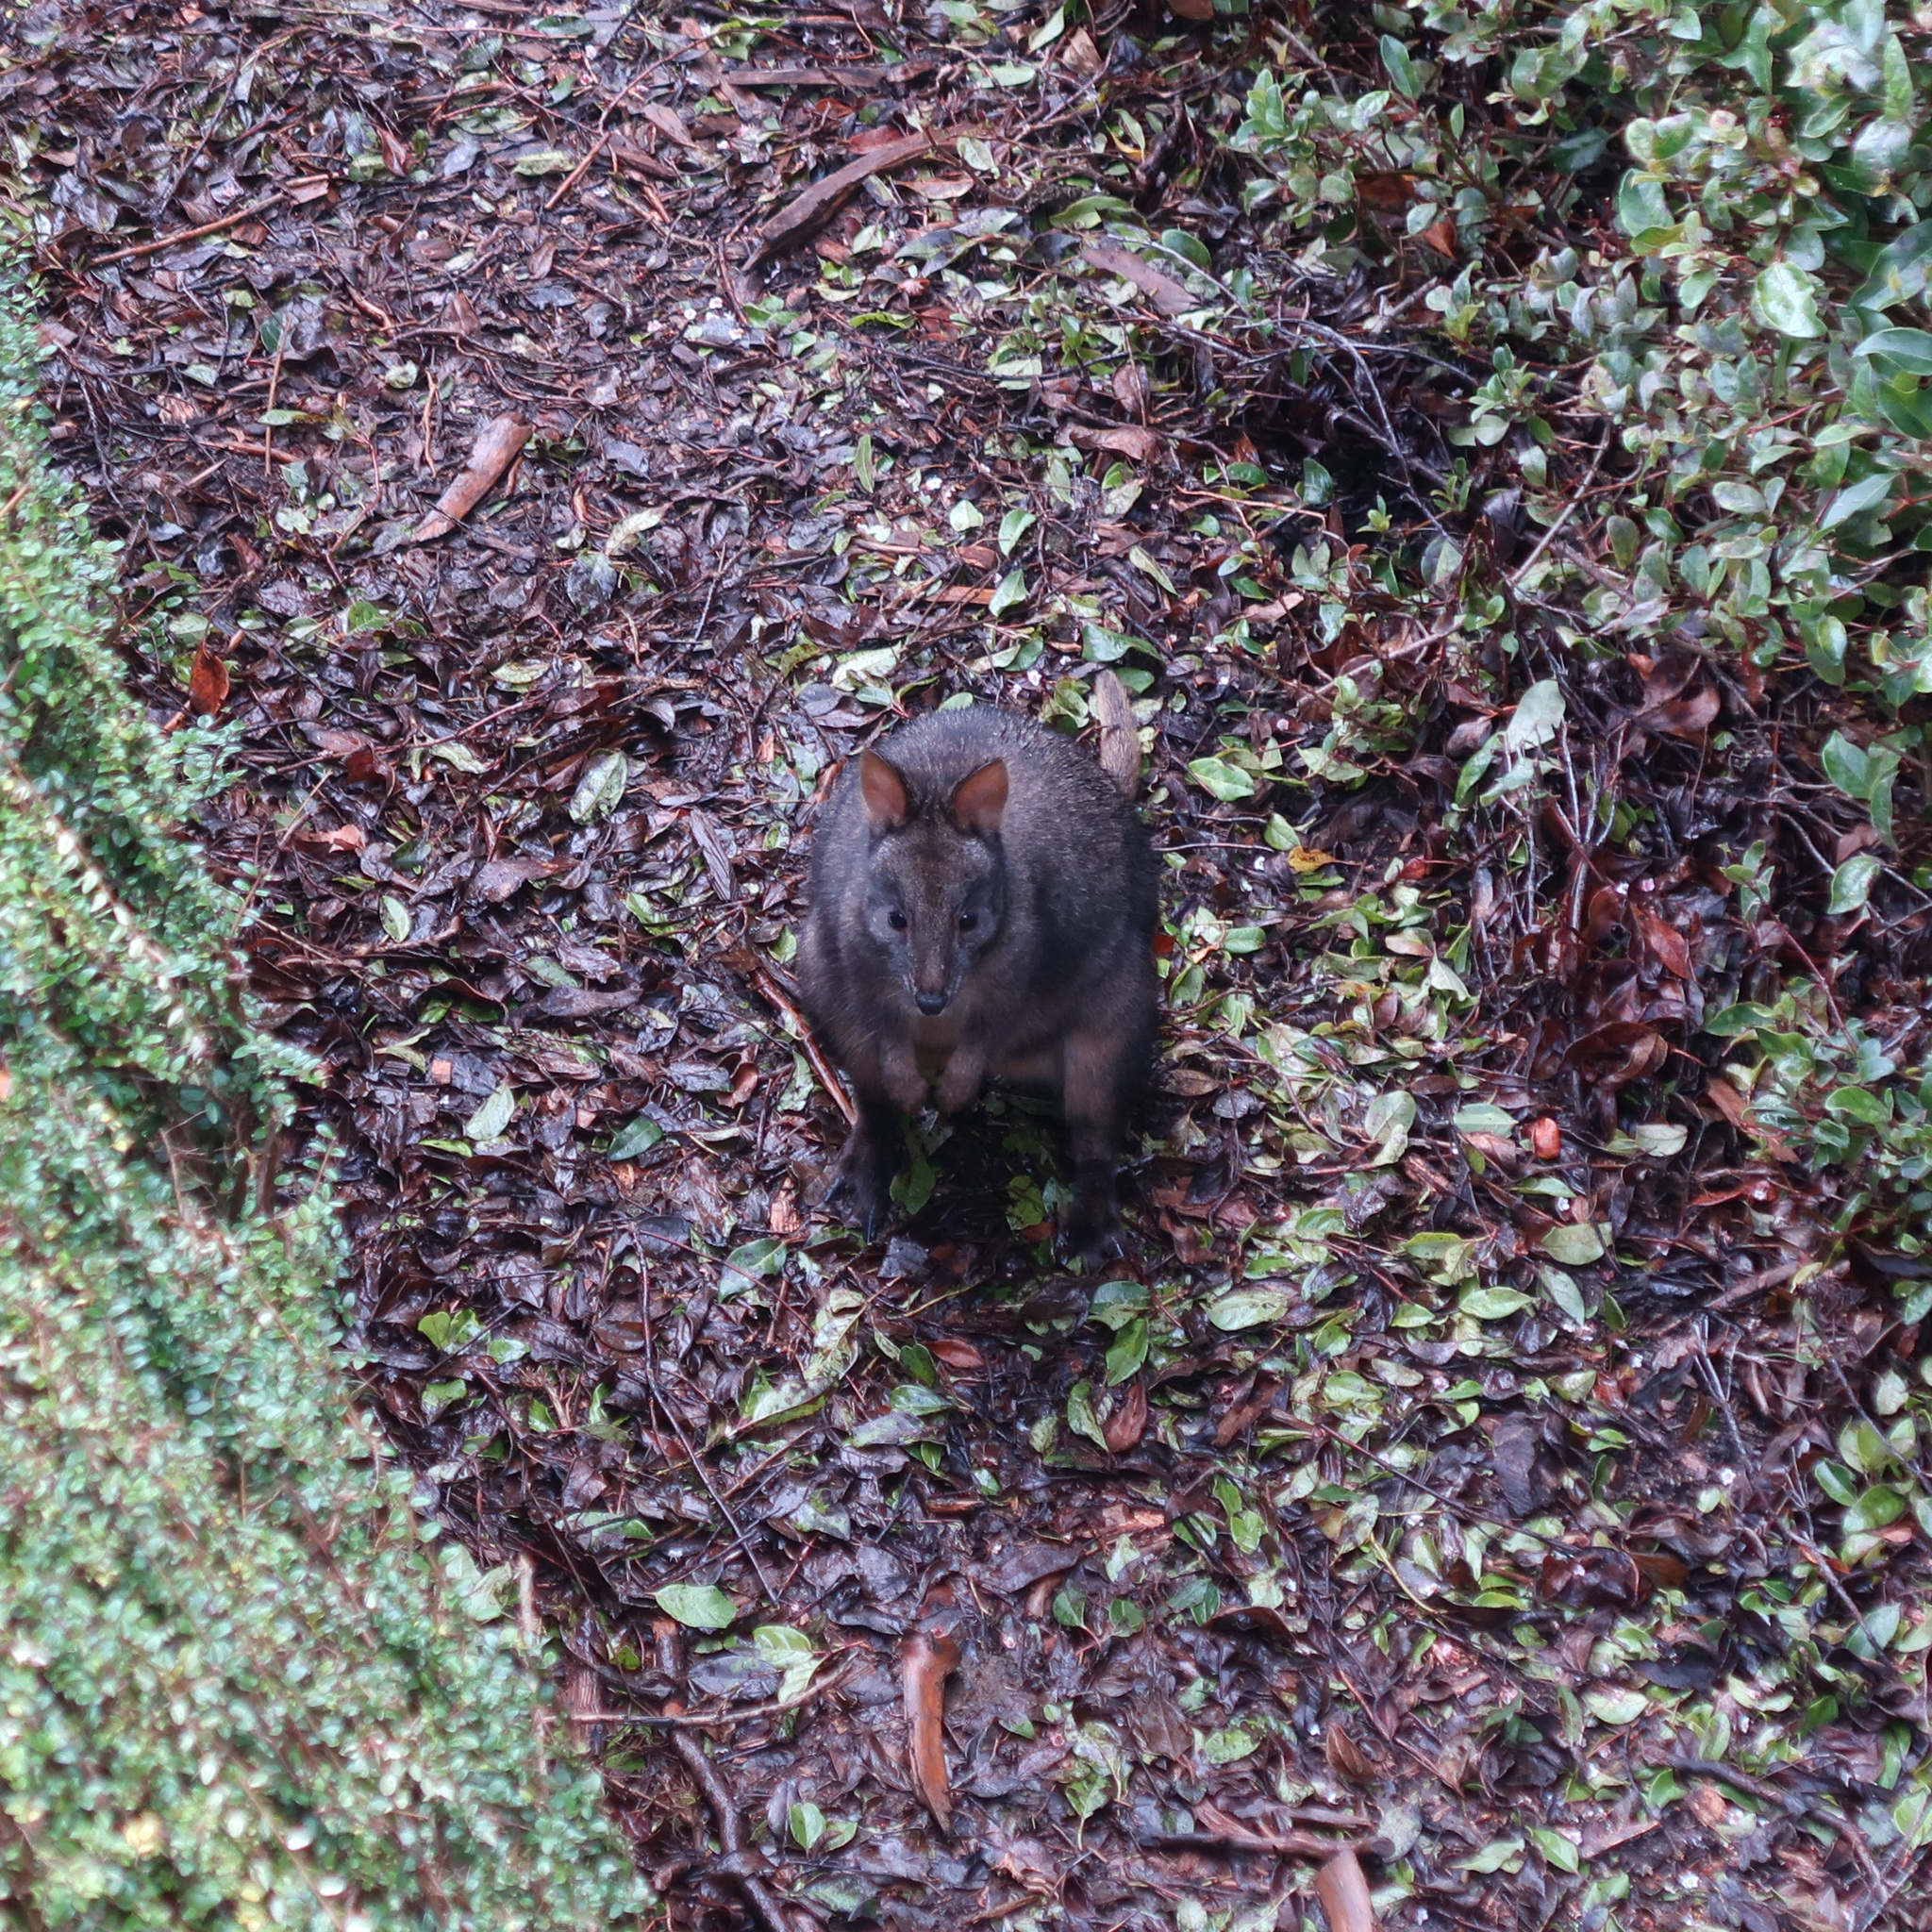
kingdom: Animalia
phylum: Chordata
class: Mammalia
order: Diprotodontia
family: Macropodidae
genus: Thylogale
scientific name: Thylogale billardierii
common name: Tasmanian pademelon
